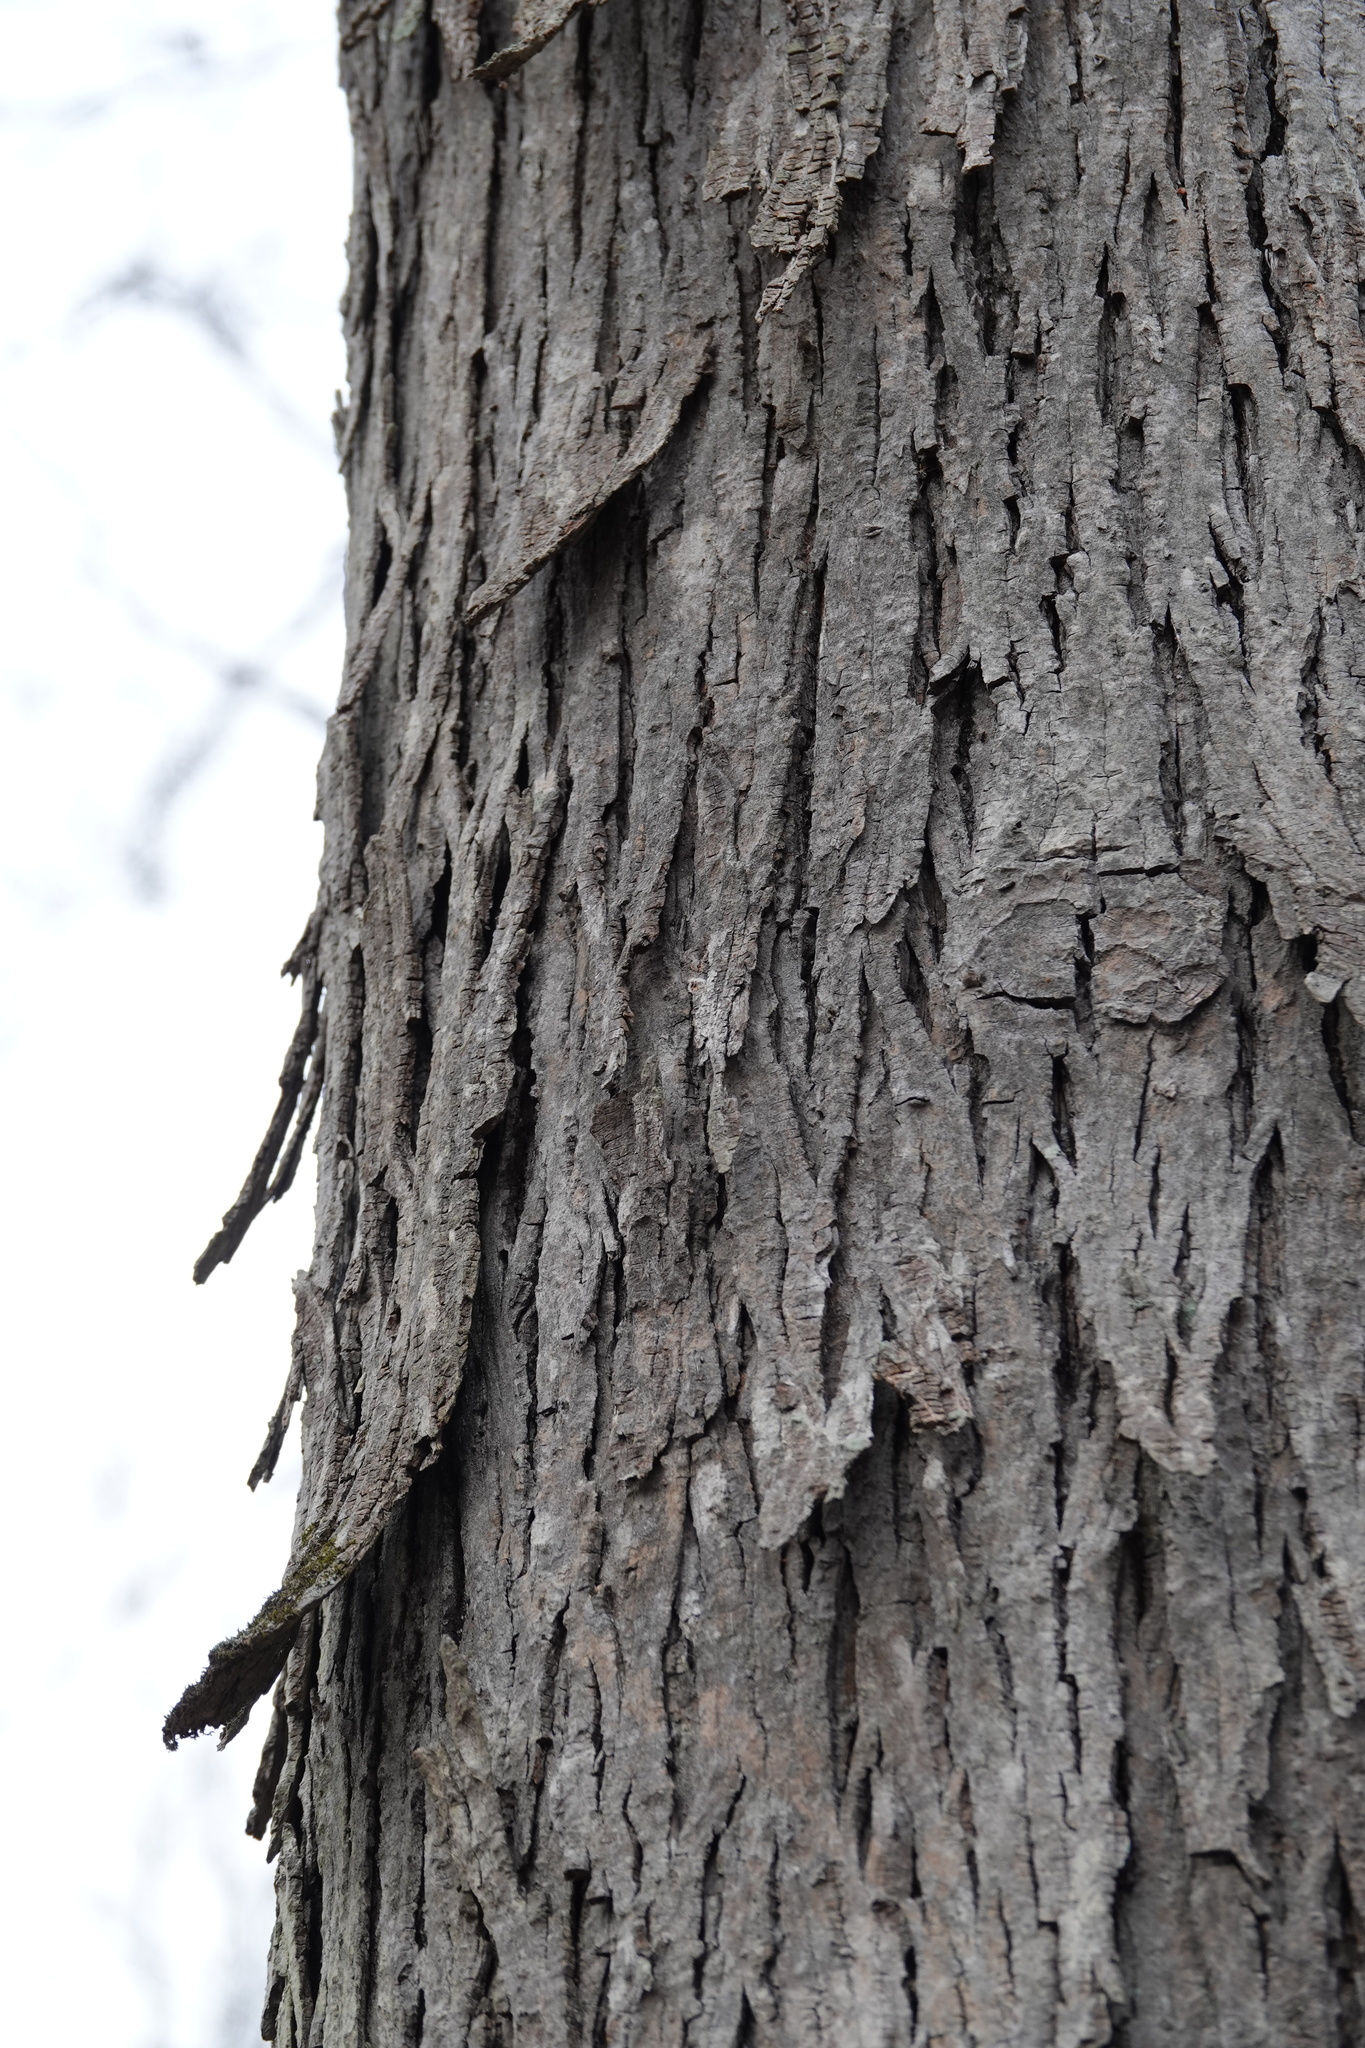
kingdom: Plantae
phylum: Tracheophyta
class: Magnoliopsida
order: Fagales
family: Juglandaceae
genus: Carya
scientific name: Carya ovata
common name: Shagbark hickory
